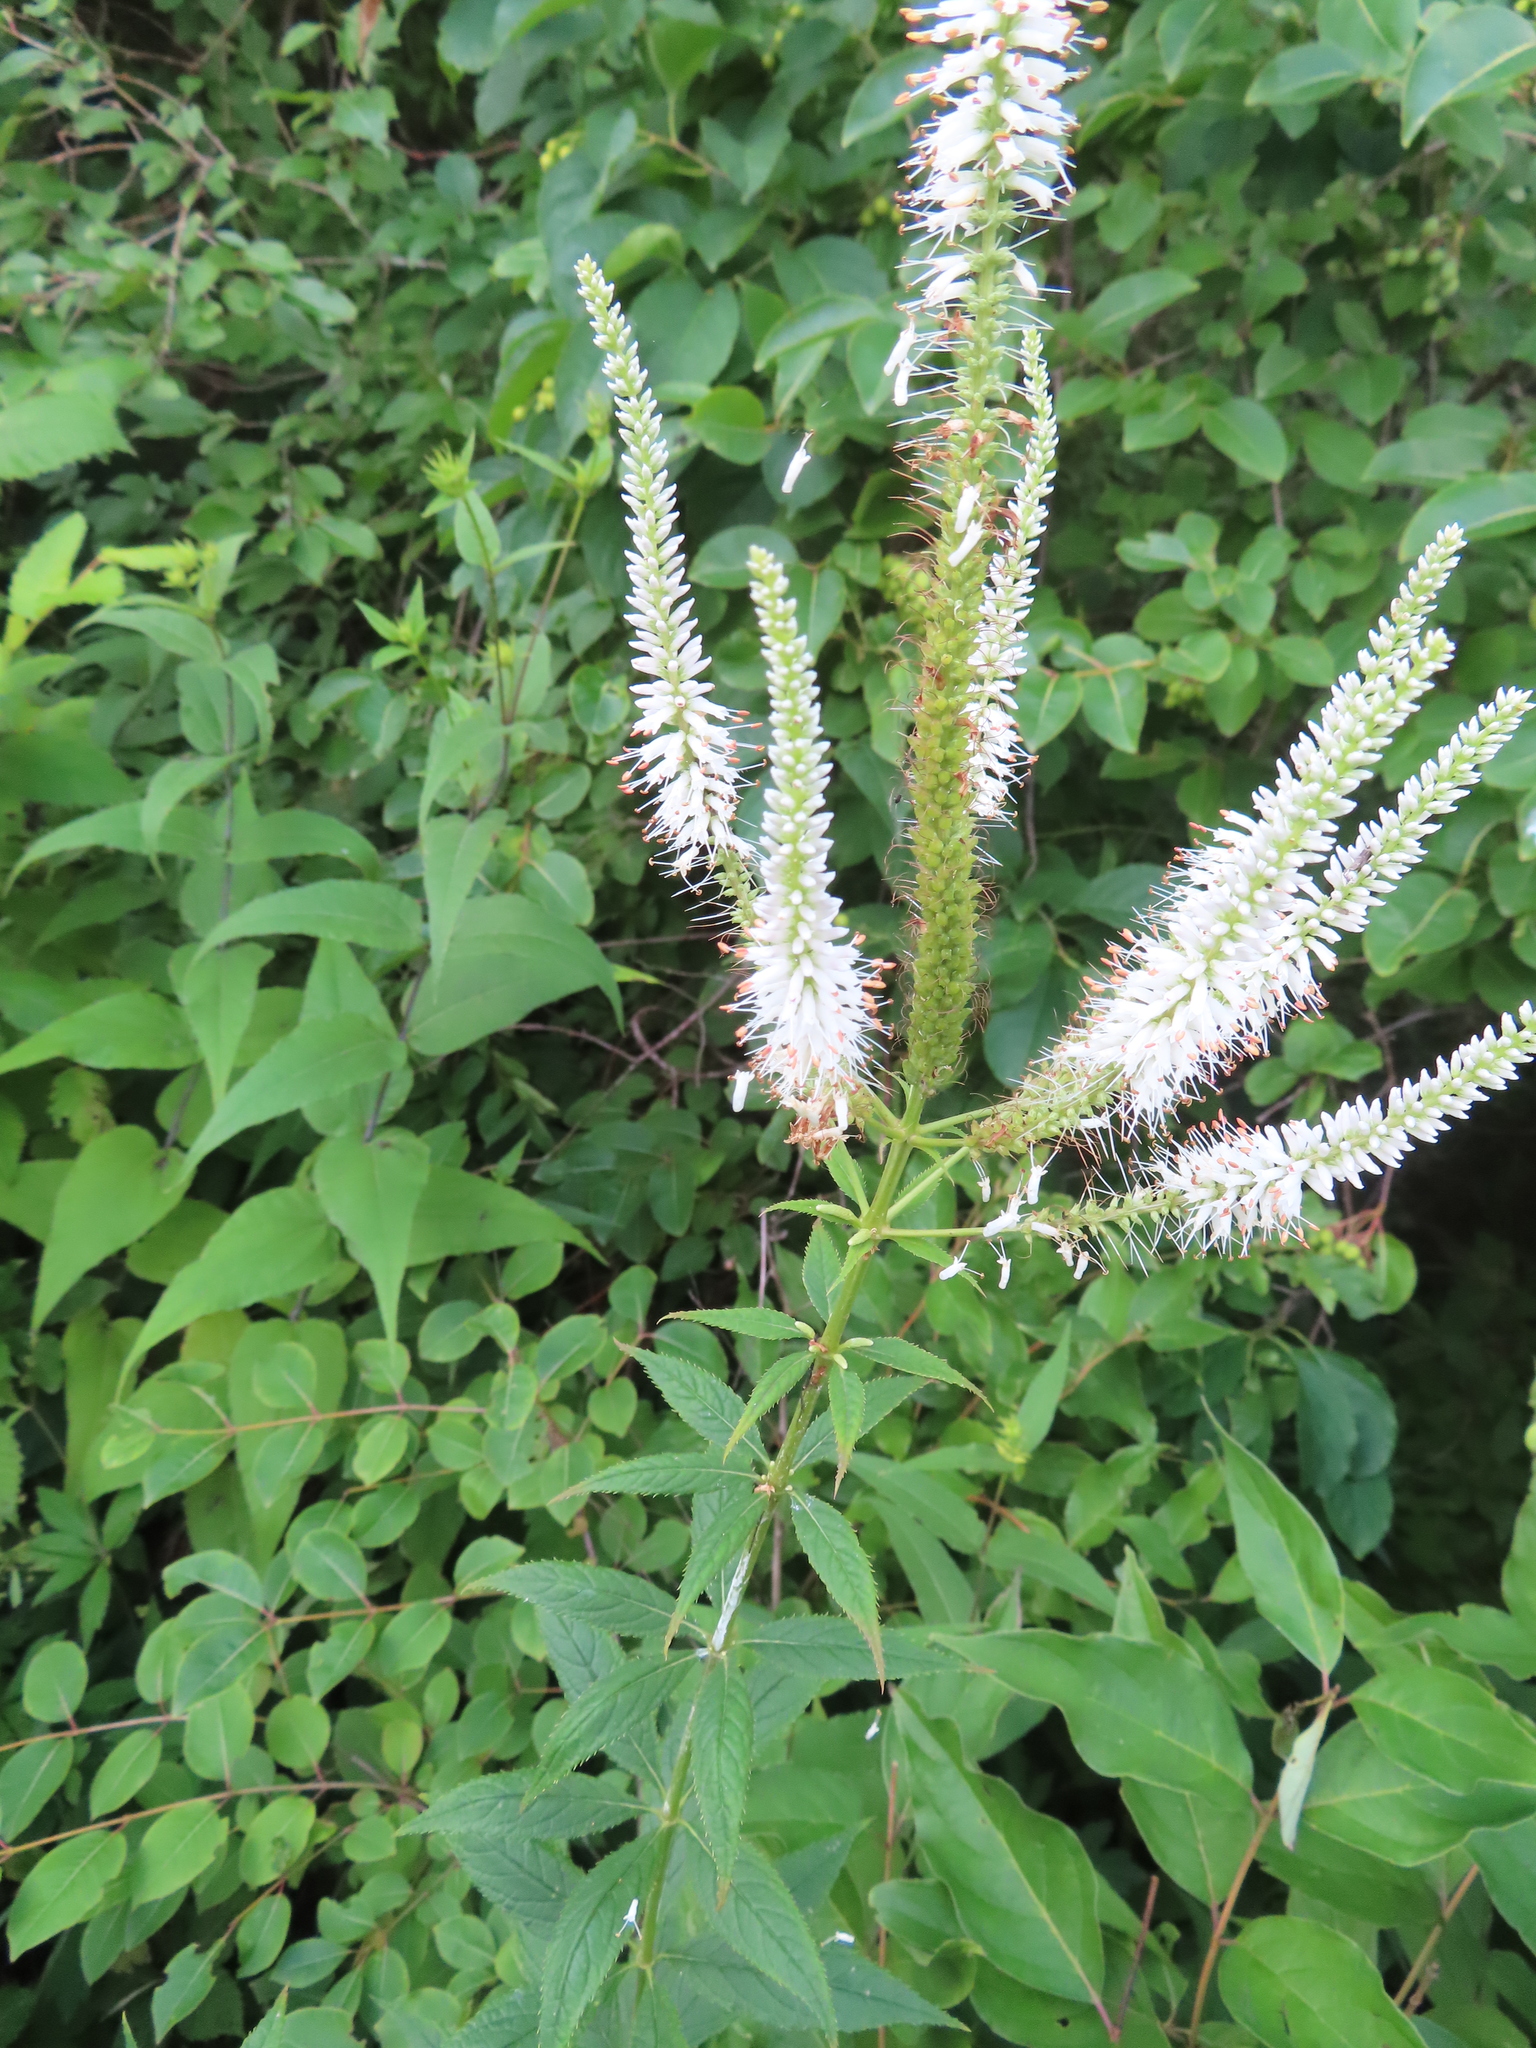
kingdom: Plantae
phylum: Tracheophyta
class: Magnoliopsida
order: Lamiales
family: Plantaginaceae
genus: Veronicastrum
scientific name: Veronicastrum virginicum
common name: Blackroot
